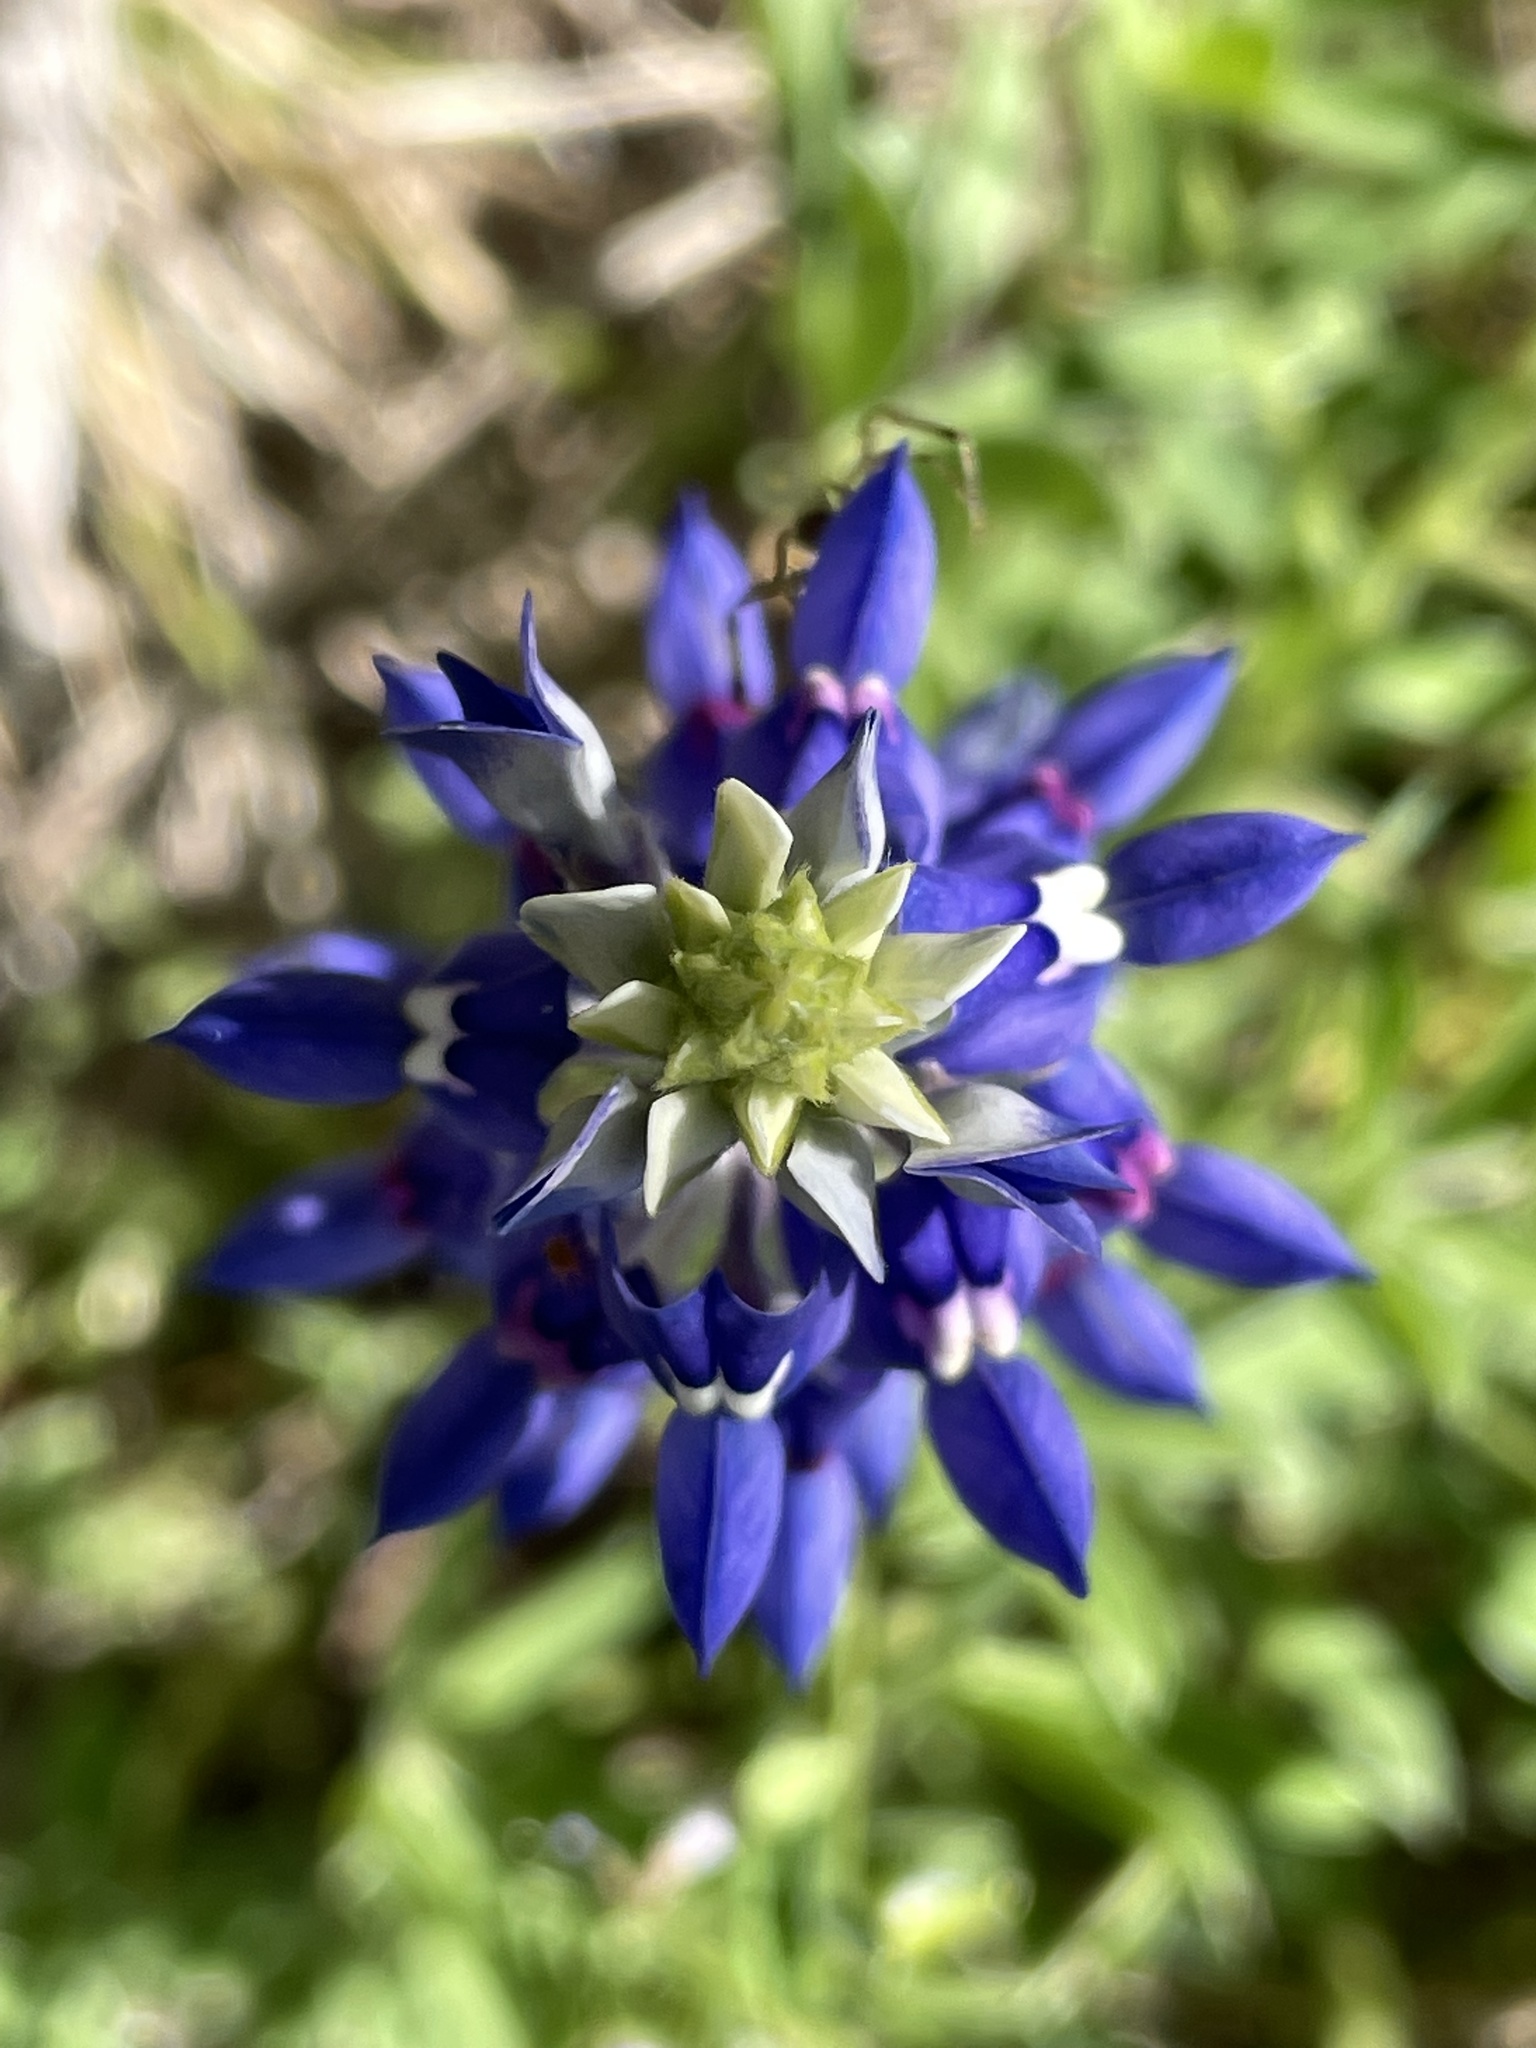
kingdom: Plantae
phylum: Tracheophyta
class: Magnoliopsida
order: Fabales
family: Fabaceae
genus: Lupinus
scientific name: Lupinus texensis
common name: Texas bluebonnet
